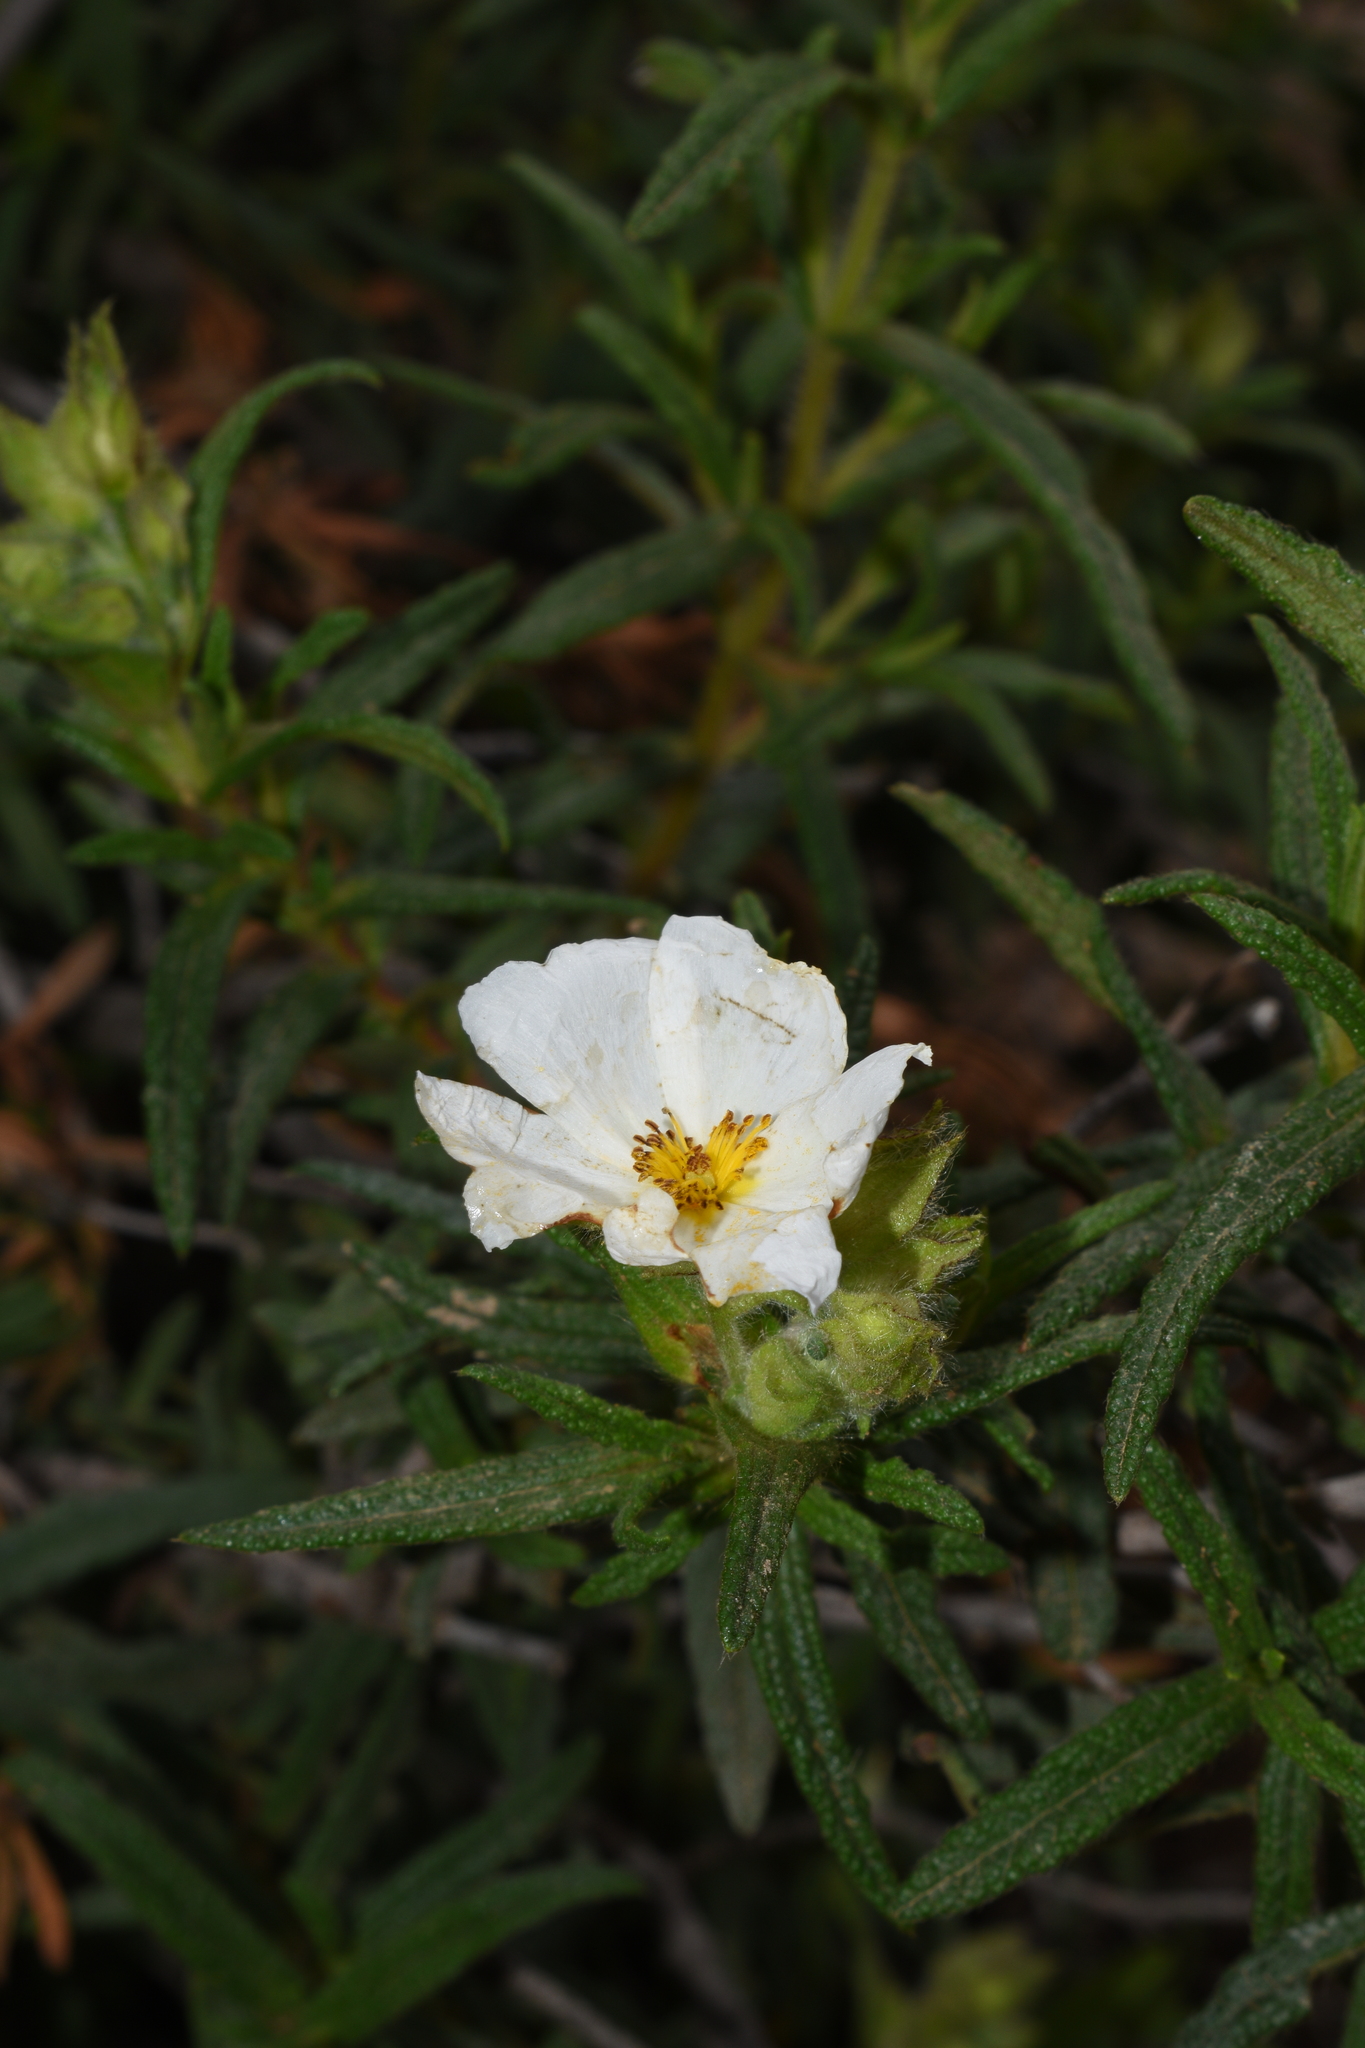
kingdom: Plantae
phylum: Tracheophyta
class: Magnoliopsida
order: Malvales
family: Cistaceae
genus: Cistus
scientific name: Cistus monspeliensis
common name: Montpelier cistus
